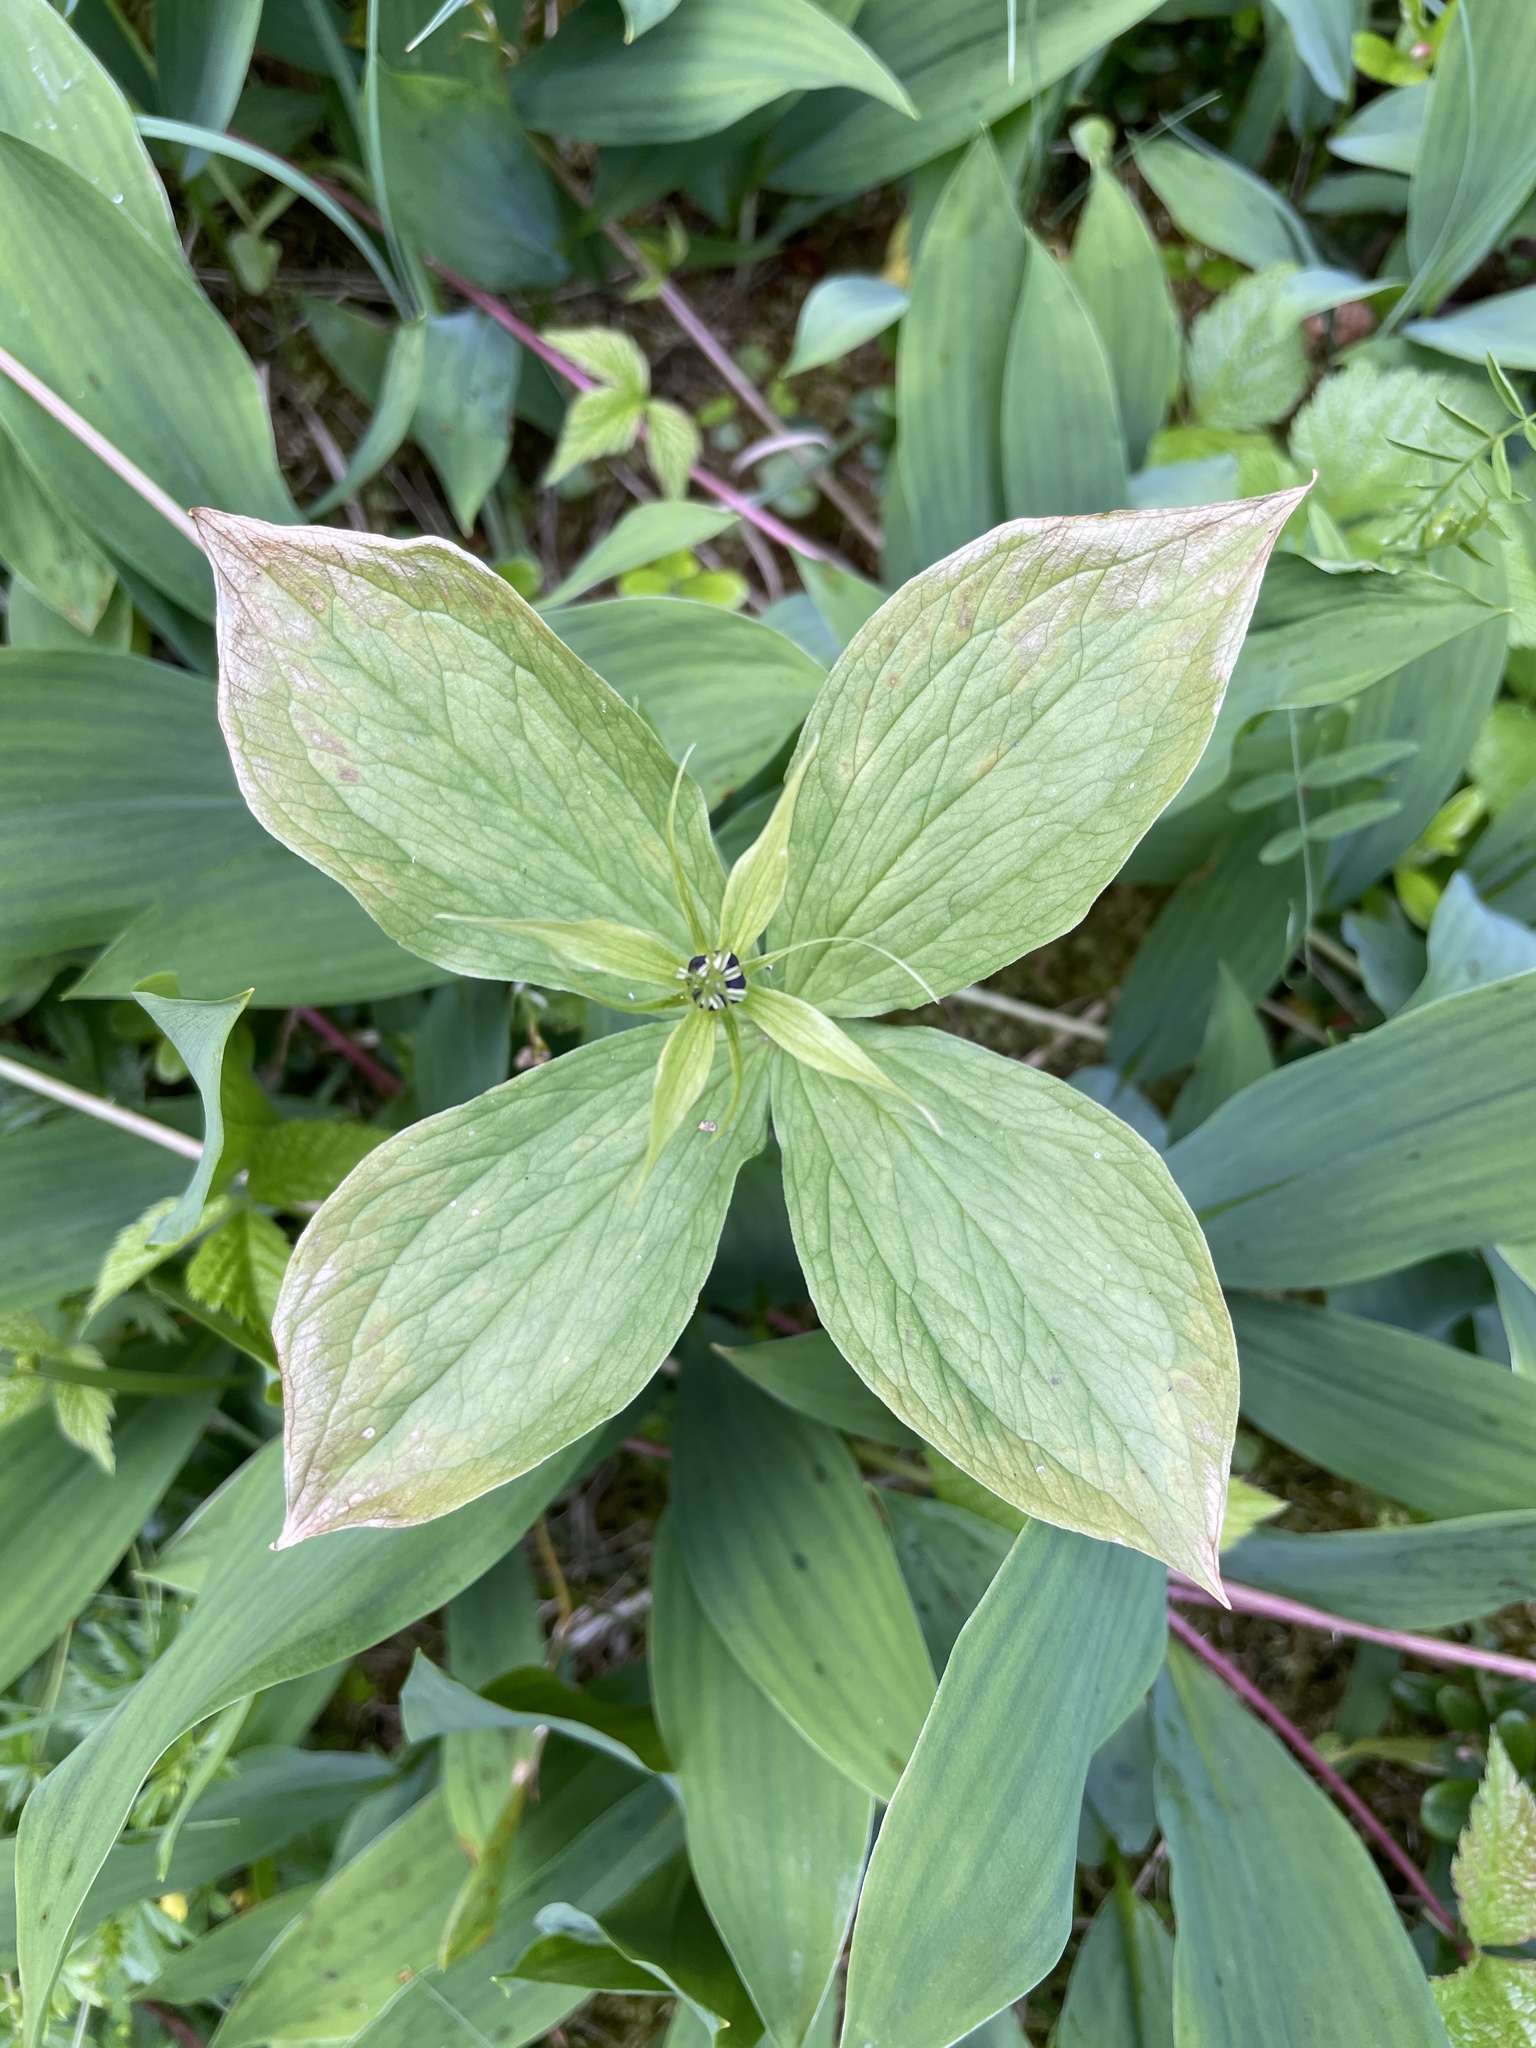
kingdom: Plantae
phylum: Tracheophyta
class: Liliopsida
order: Liliales
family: Melanthiaceae
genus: Paris
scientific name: Paris quadrifolia
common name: Herb-paris
